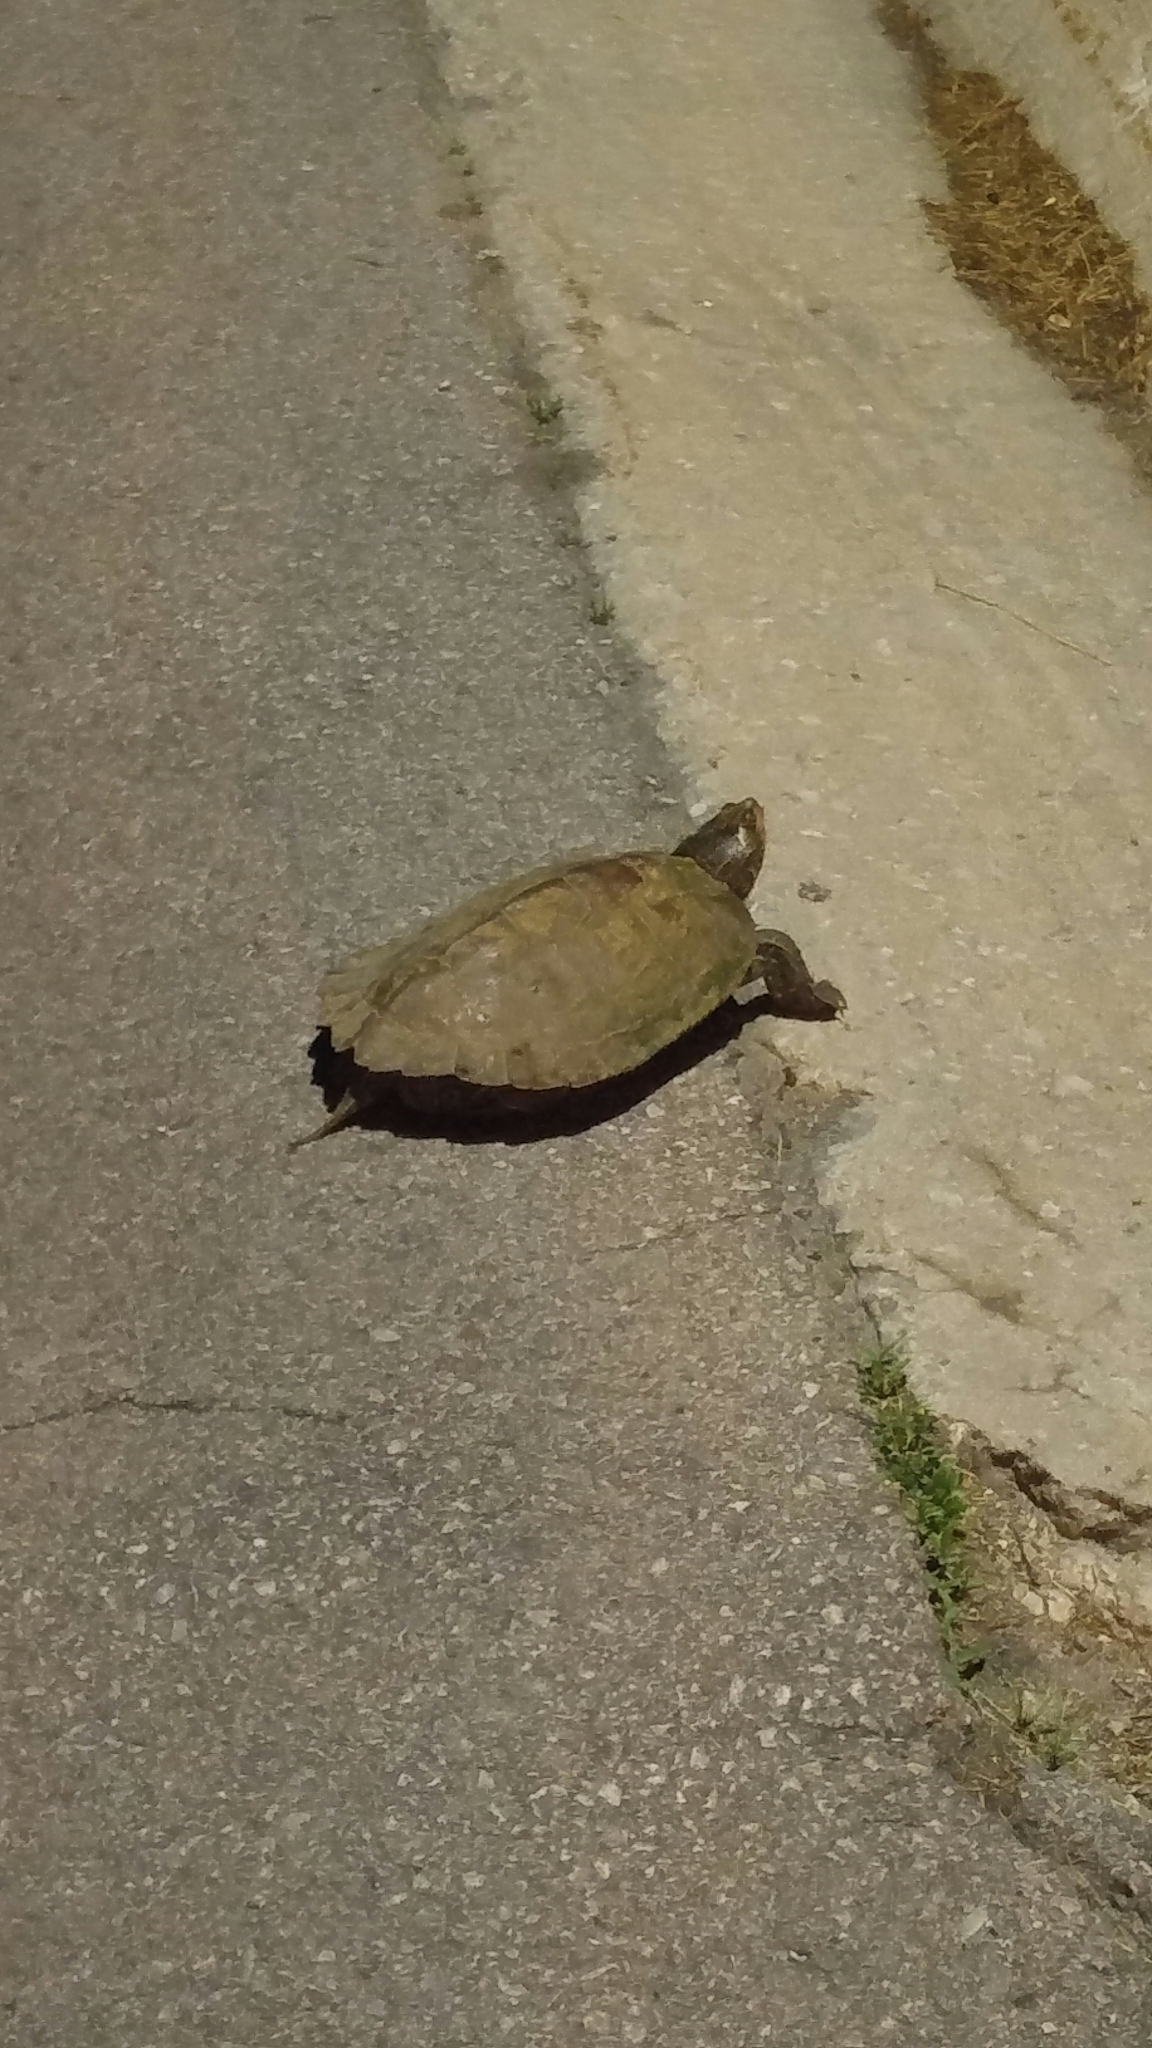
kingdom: Animalia
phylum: Chordata
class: Testudines
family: Emydidae
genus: Graptemys
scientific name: Graptemys geographica
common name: Common map turtle
